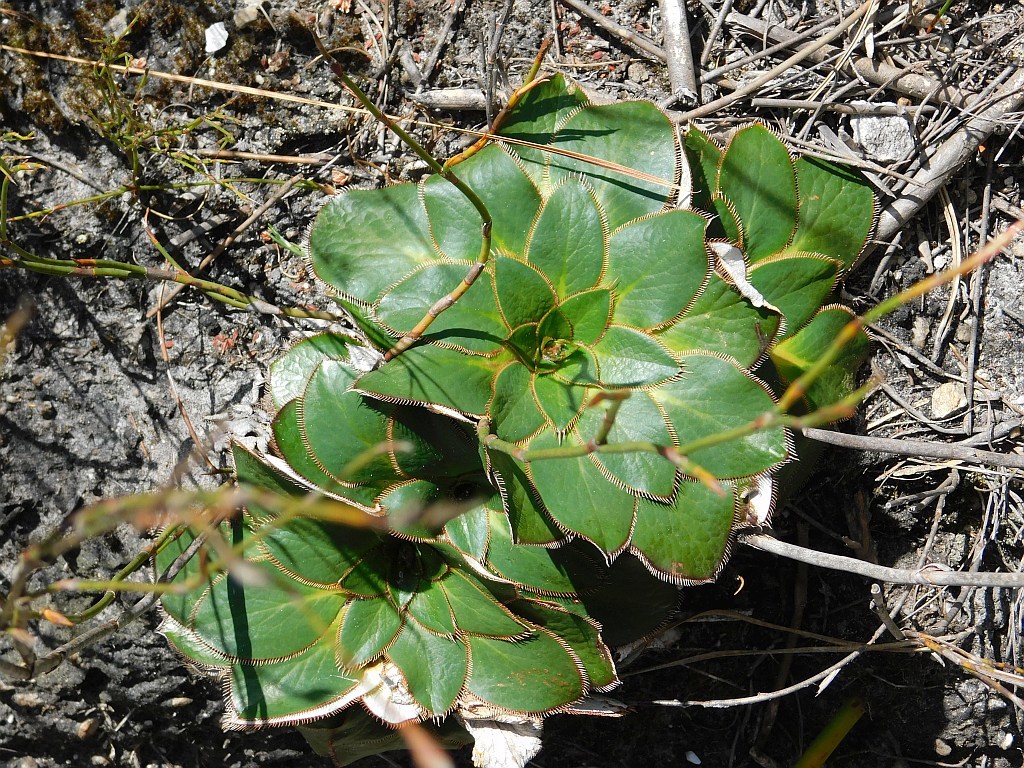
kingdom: Plantae
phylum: Tracheophyta
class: Magnoliopsida
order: Apiales
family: Apiaceae
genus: Hermas
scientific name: Hermas ciliata
